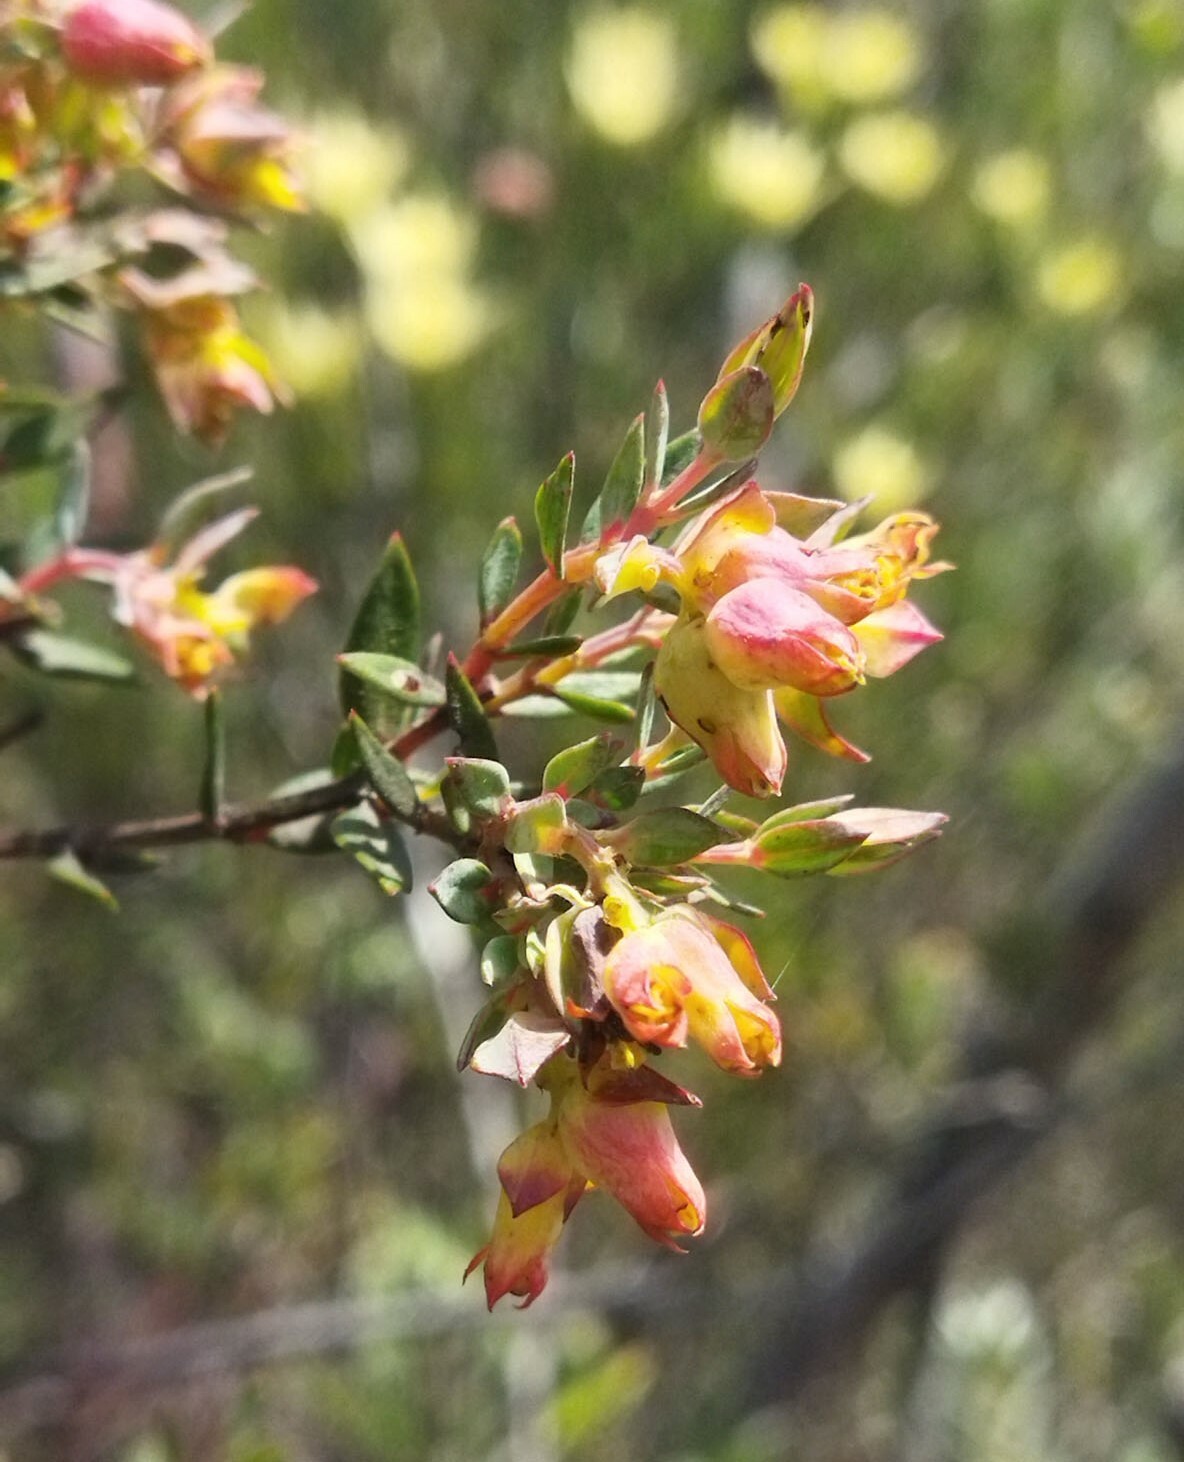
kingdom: Plantae
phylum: Tracheophyta
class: Magnoliopsida
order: Myrtales
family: Penaeaceae
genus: Penaea
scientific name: Penaea acutifolia
